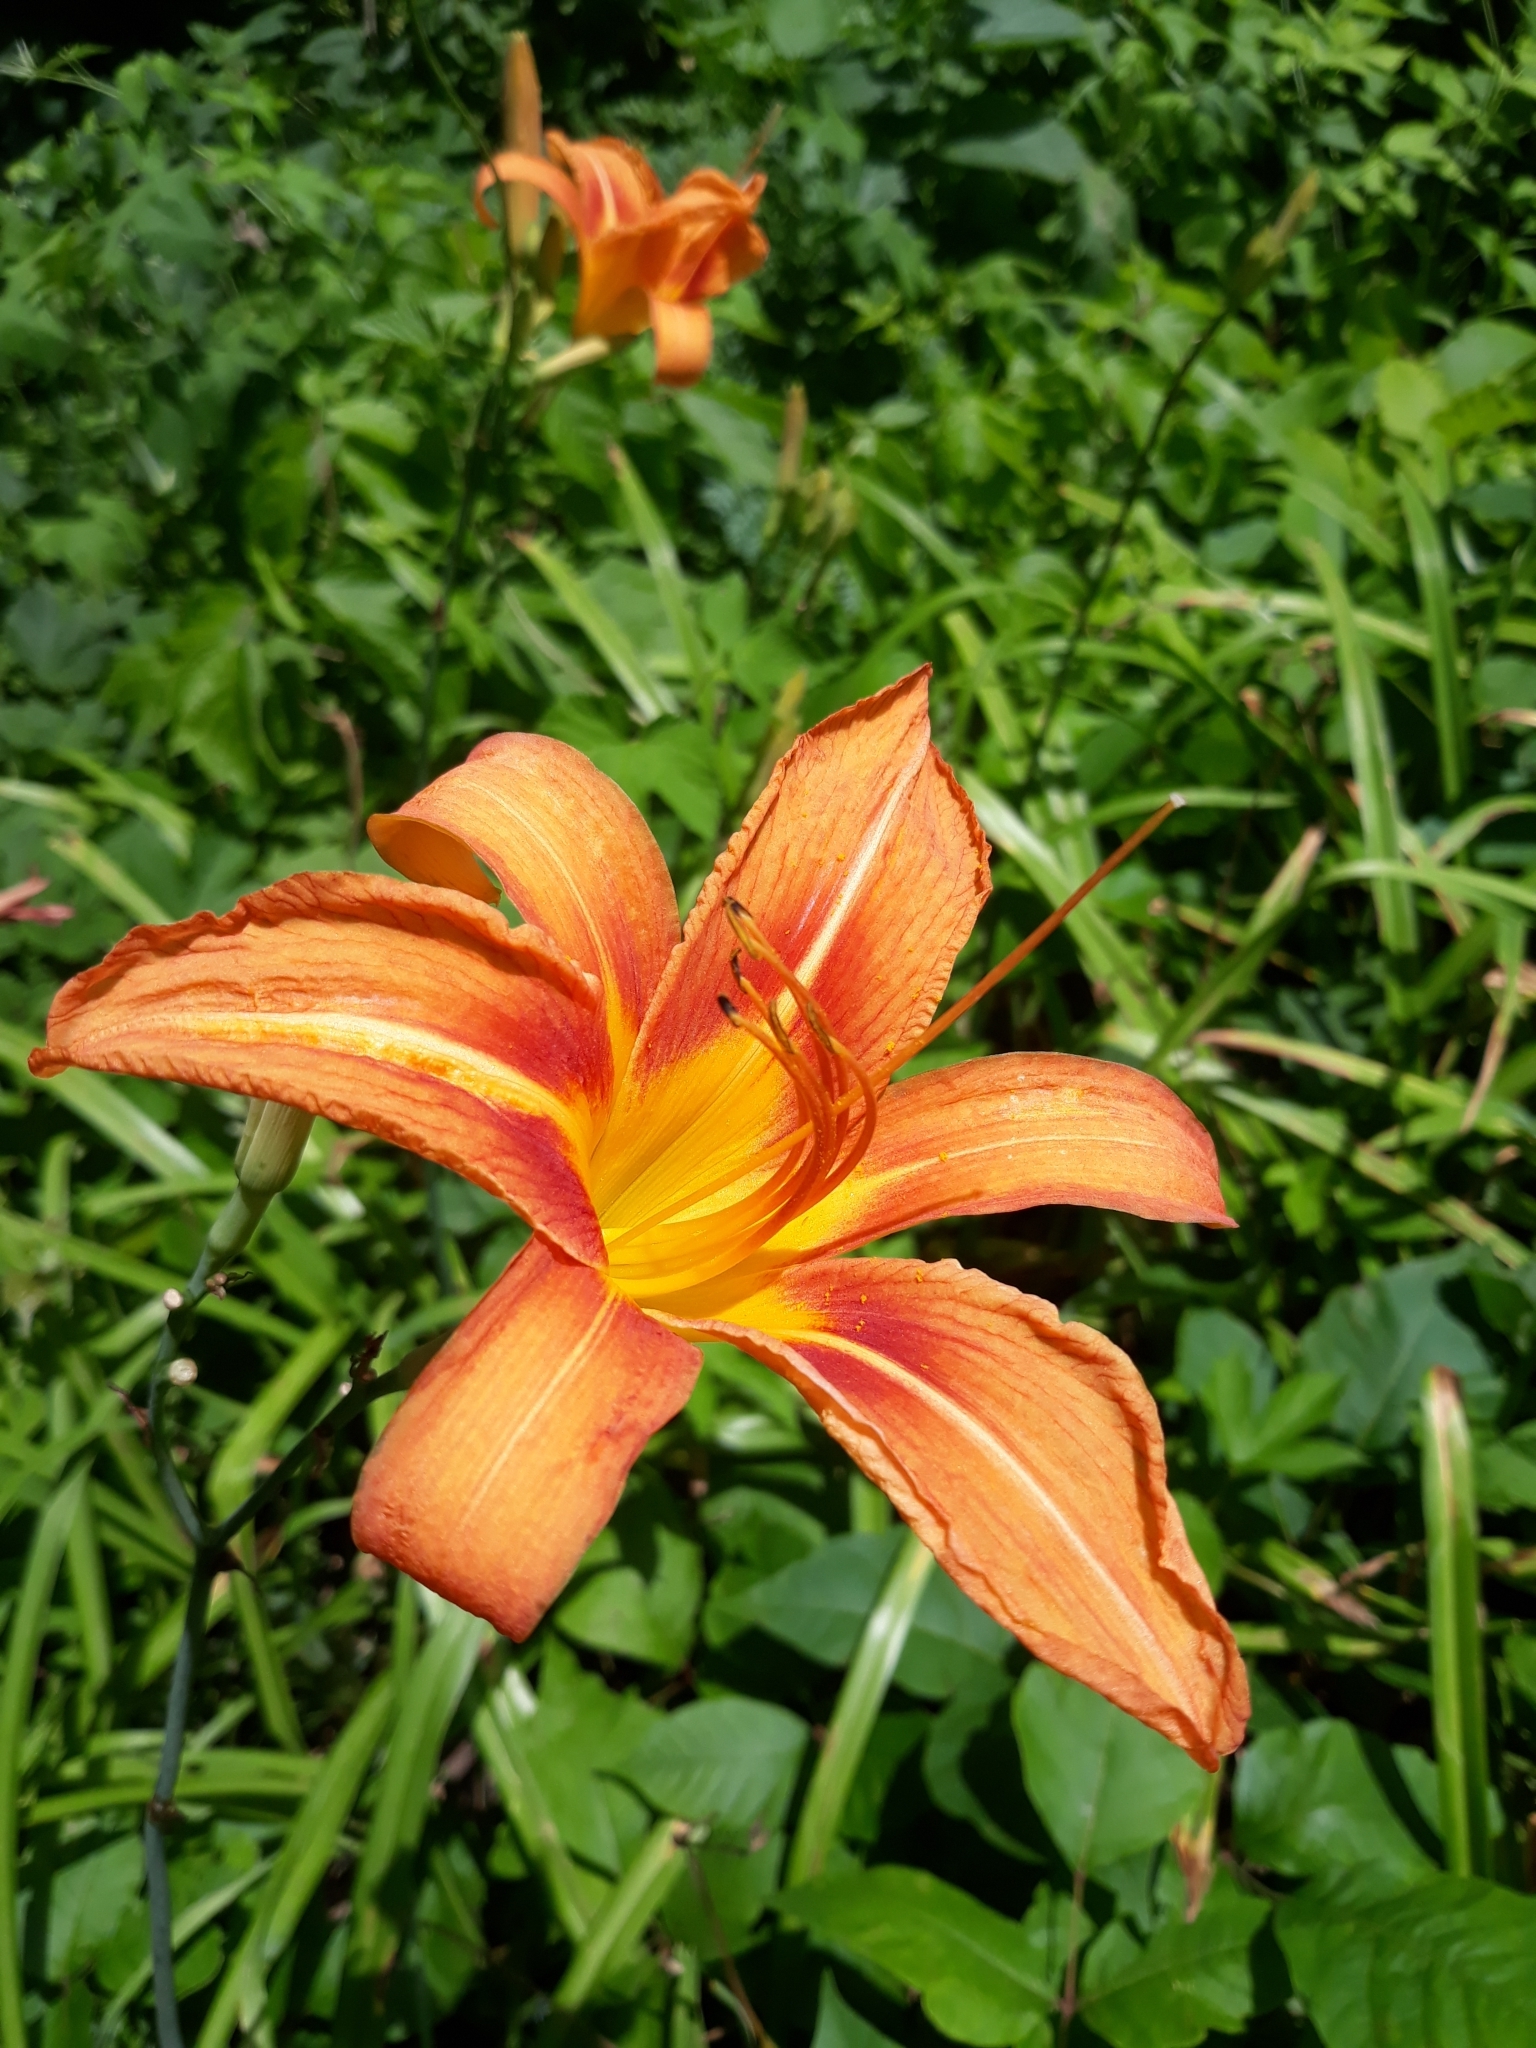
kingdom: Plantae
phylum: Tracheophyta
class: Liliopsida
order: Asparagales
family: Asphodelaceae
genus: Hemerocallis
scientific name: Hemerocallis fulva
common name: Orange day-lily
